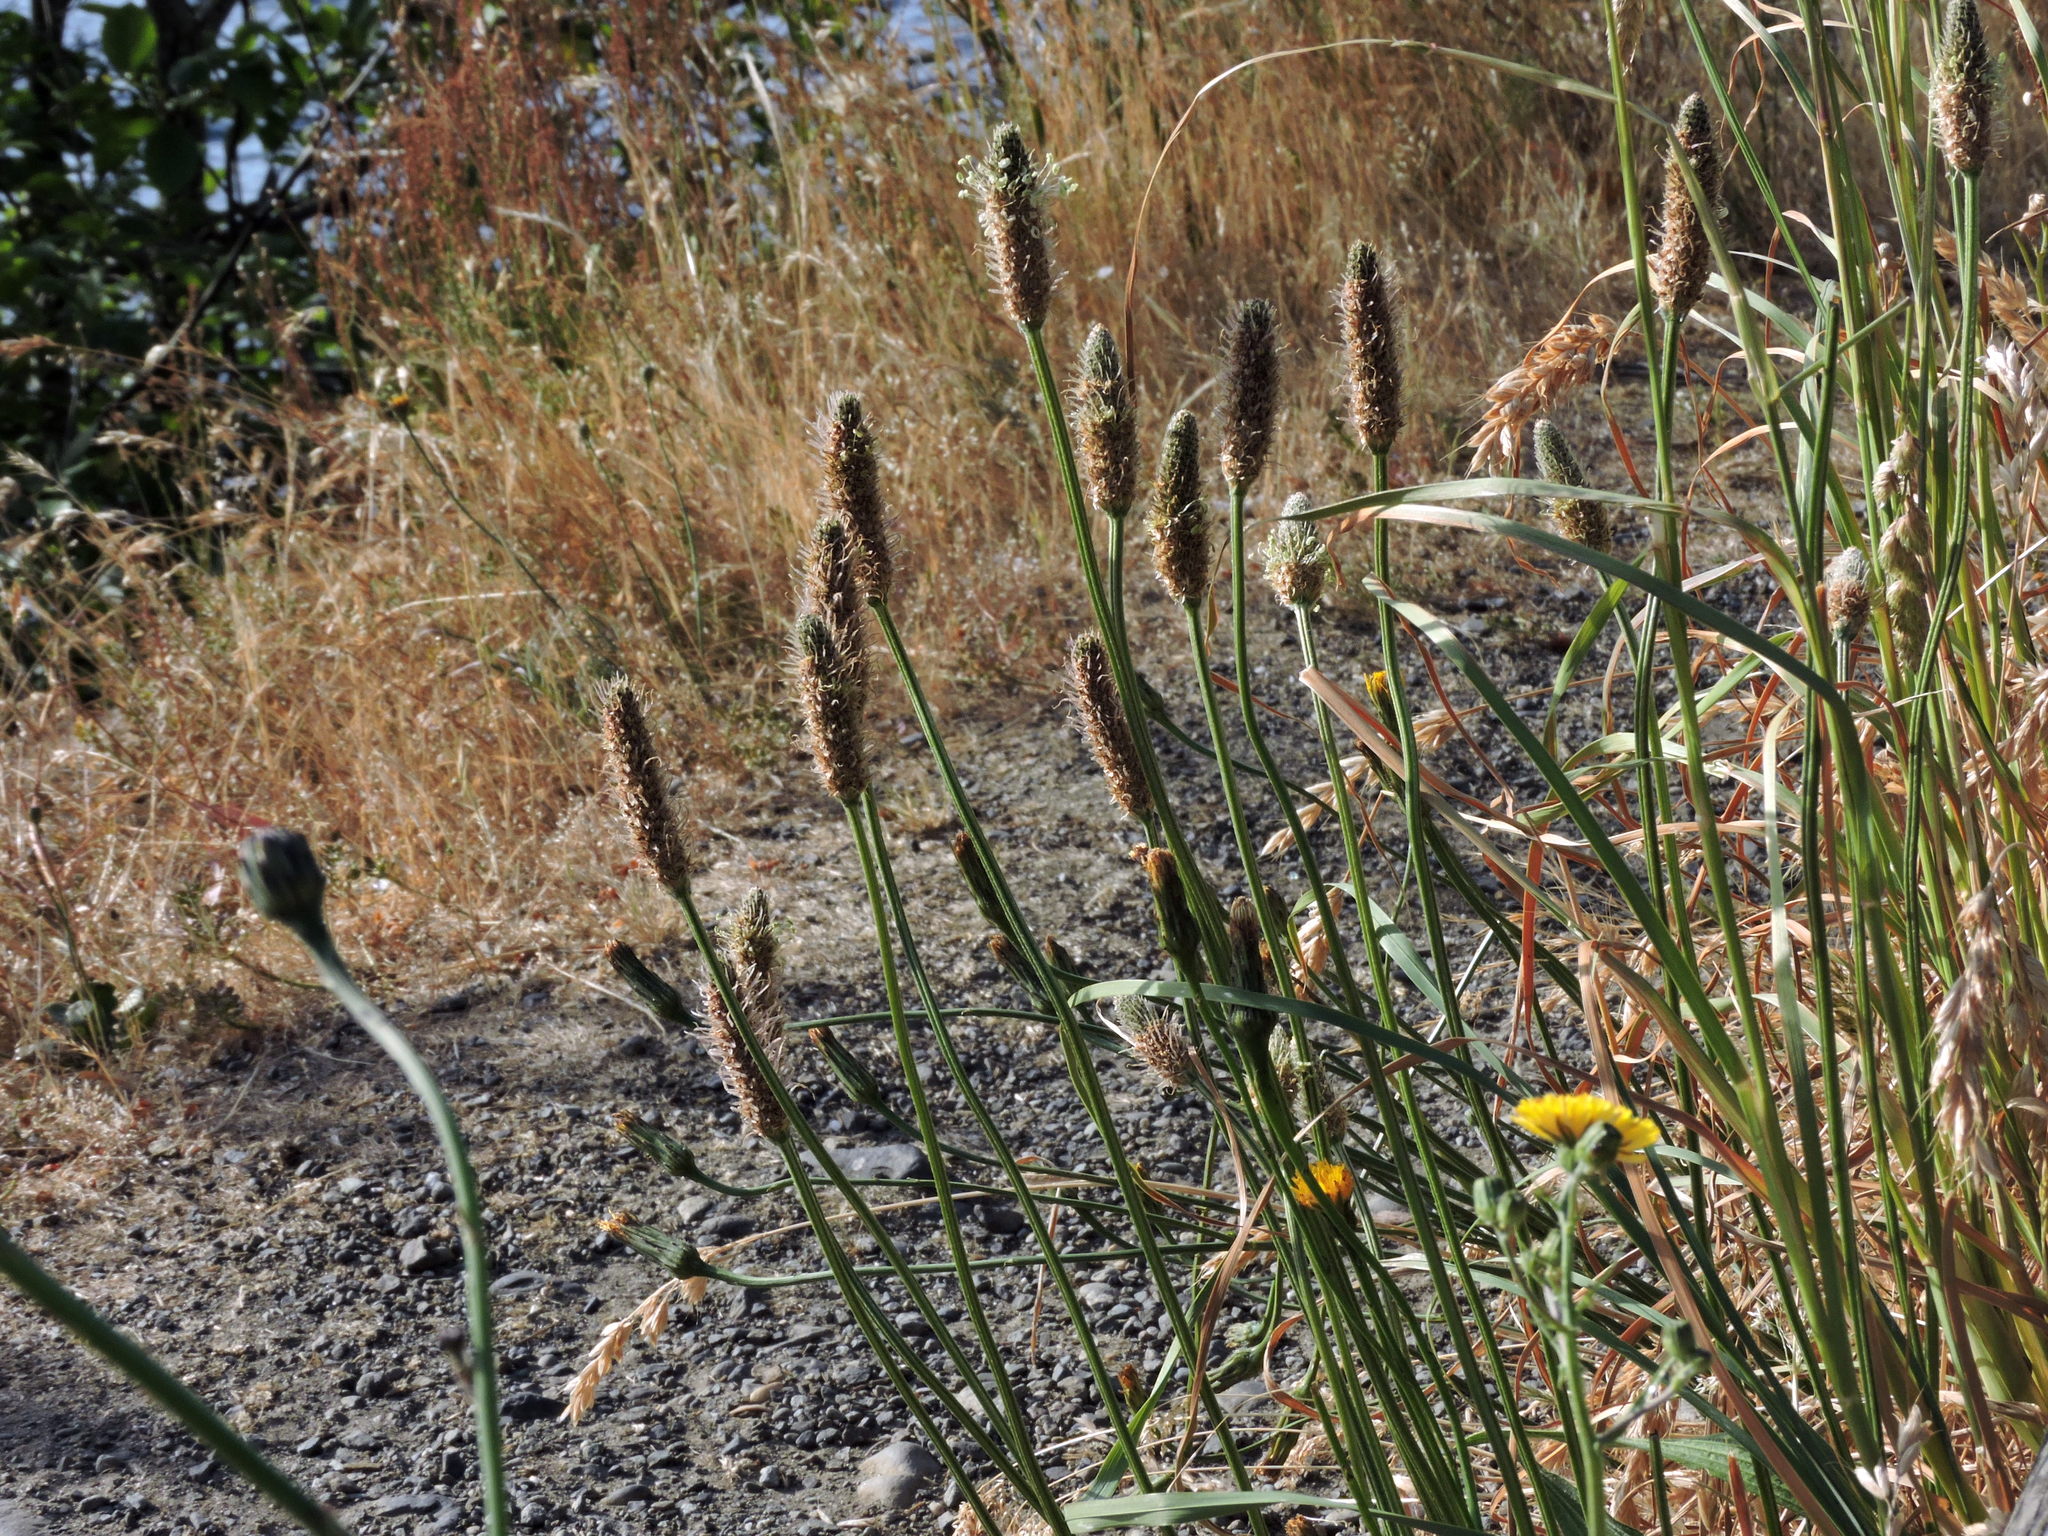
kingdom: Plantae
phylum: Tracheophyta
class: Magnoliopsida
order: Lamiales
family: Plantaginaceae
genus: Plantago
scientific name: Plantago lanceolata
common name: Ribwort plantain
